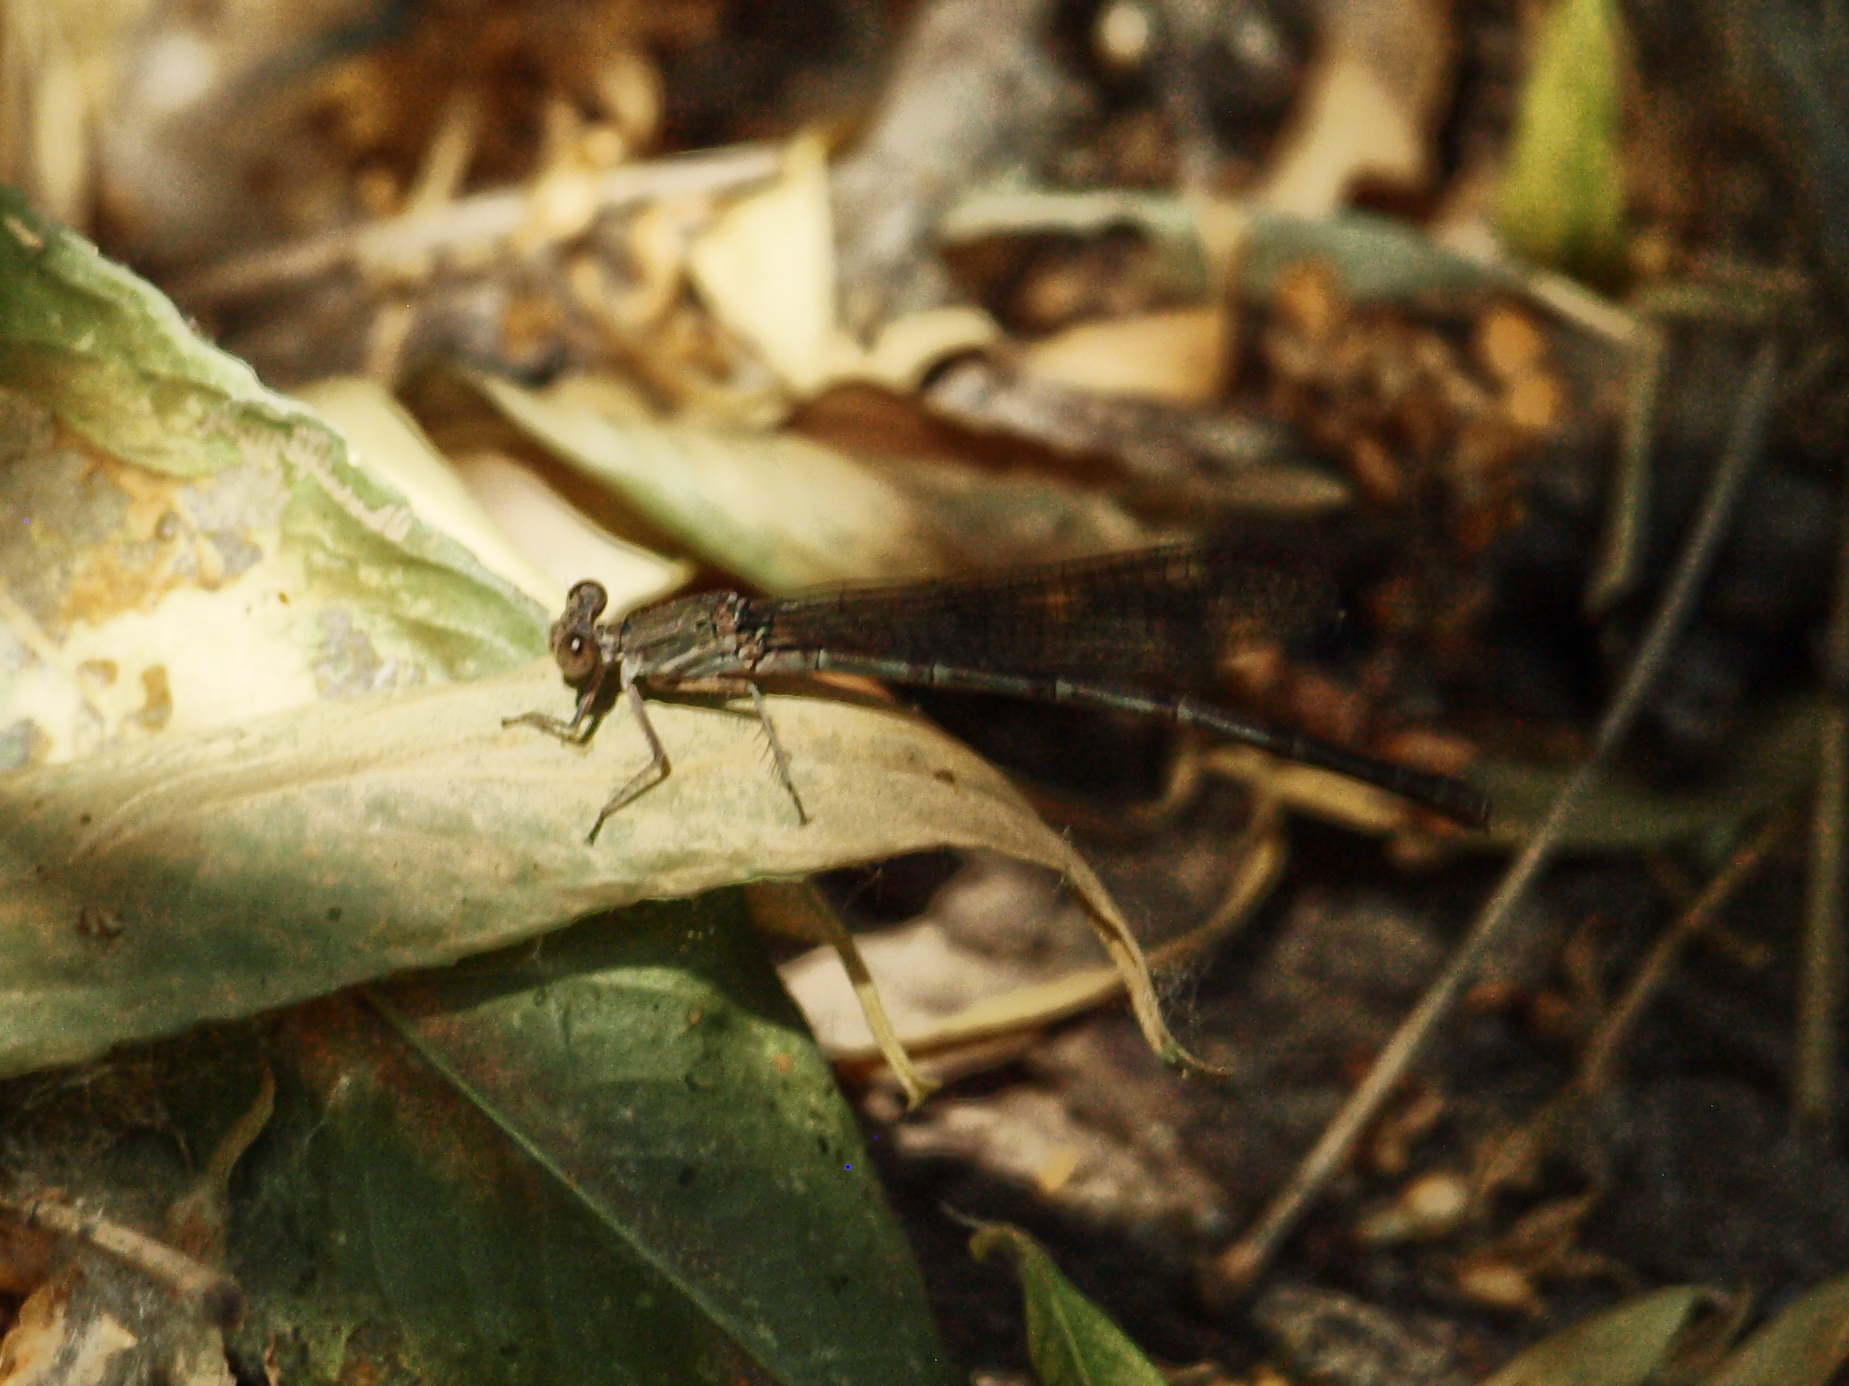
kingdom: Animalia
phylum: Arthropoda
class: Insecta
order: Odonata
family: Coenagrionidae
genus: Argia
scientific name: Argia sedula
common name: Blue-ringed dancer
